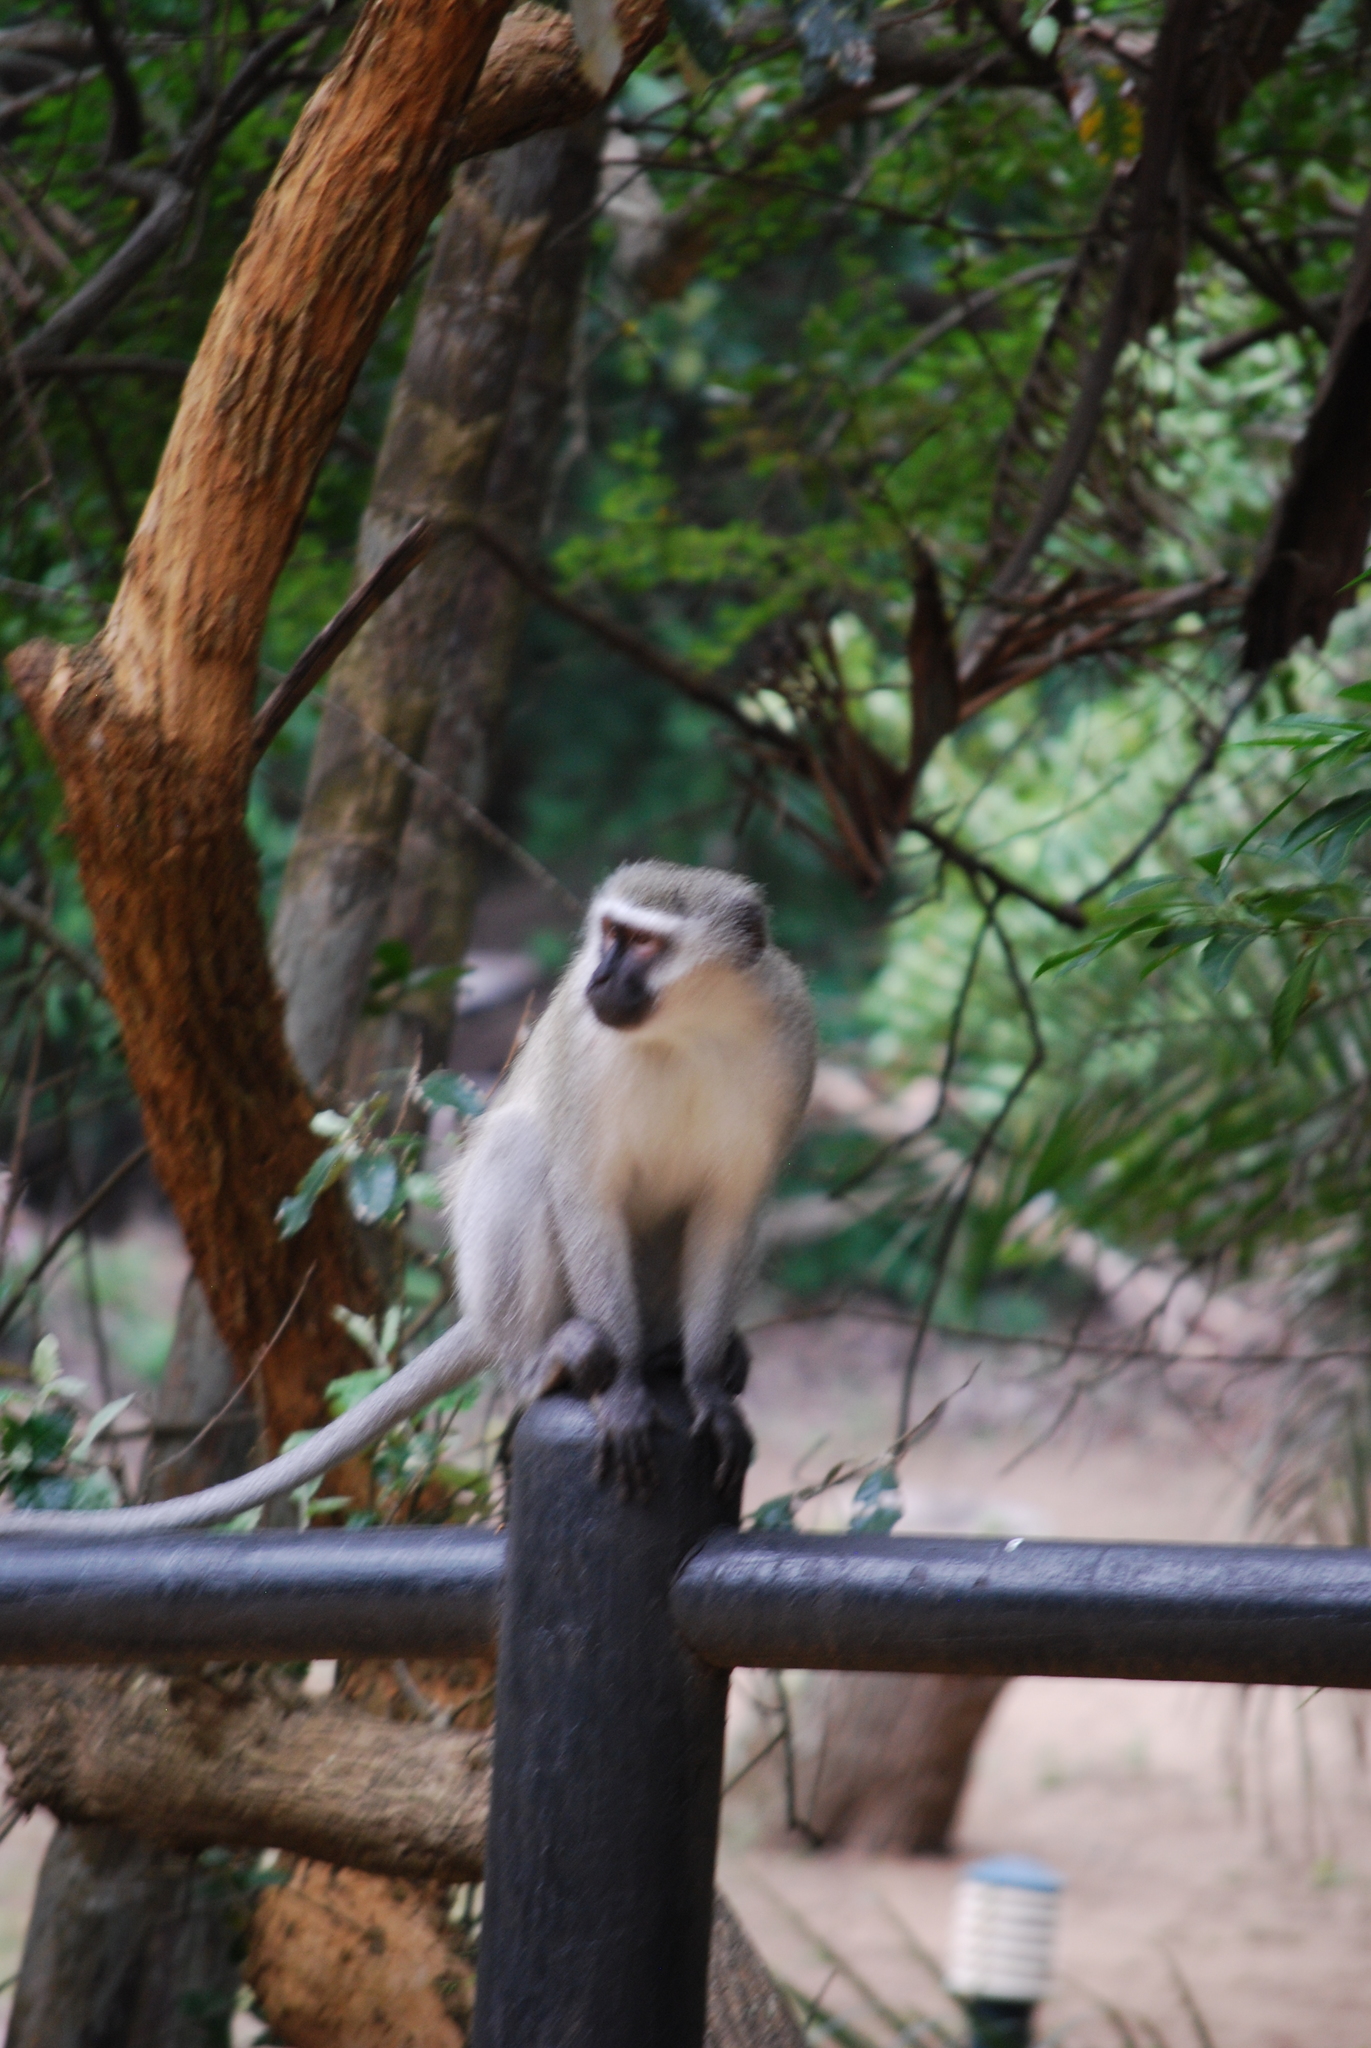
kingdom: Animalia
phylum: Chordata
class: Mammalia
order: Primates
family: Cercopithecidae
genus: Chlorocebus
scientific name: Chlorocebus pygerythrus
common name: Vervet monkey
